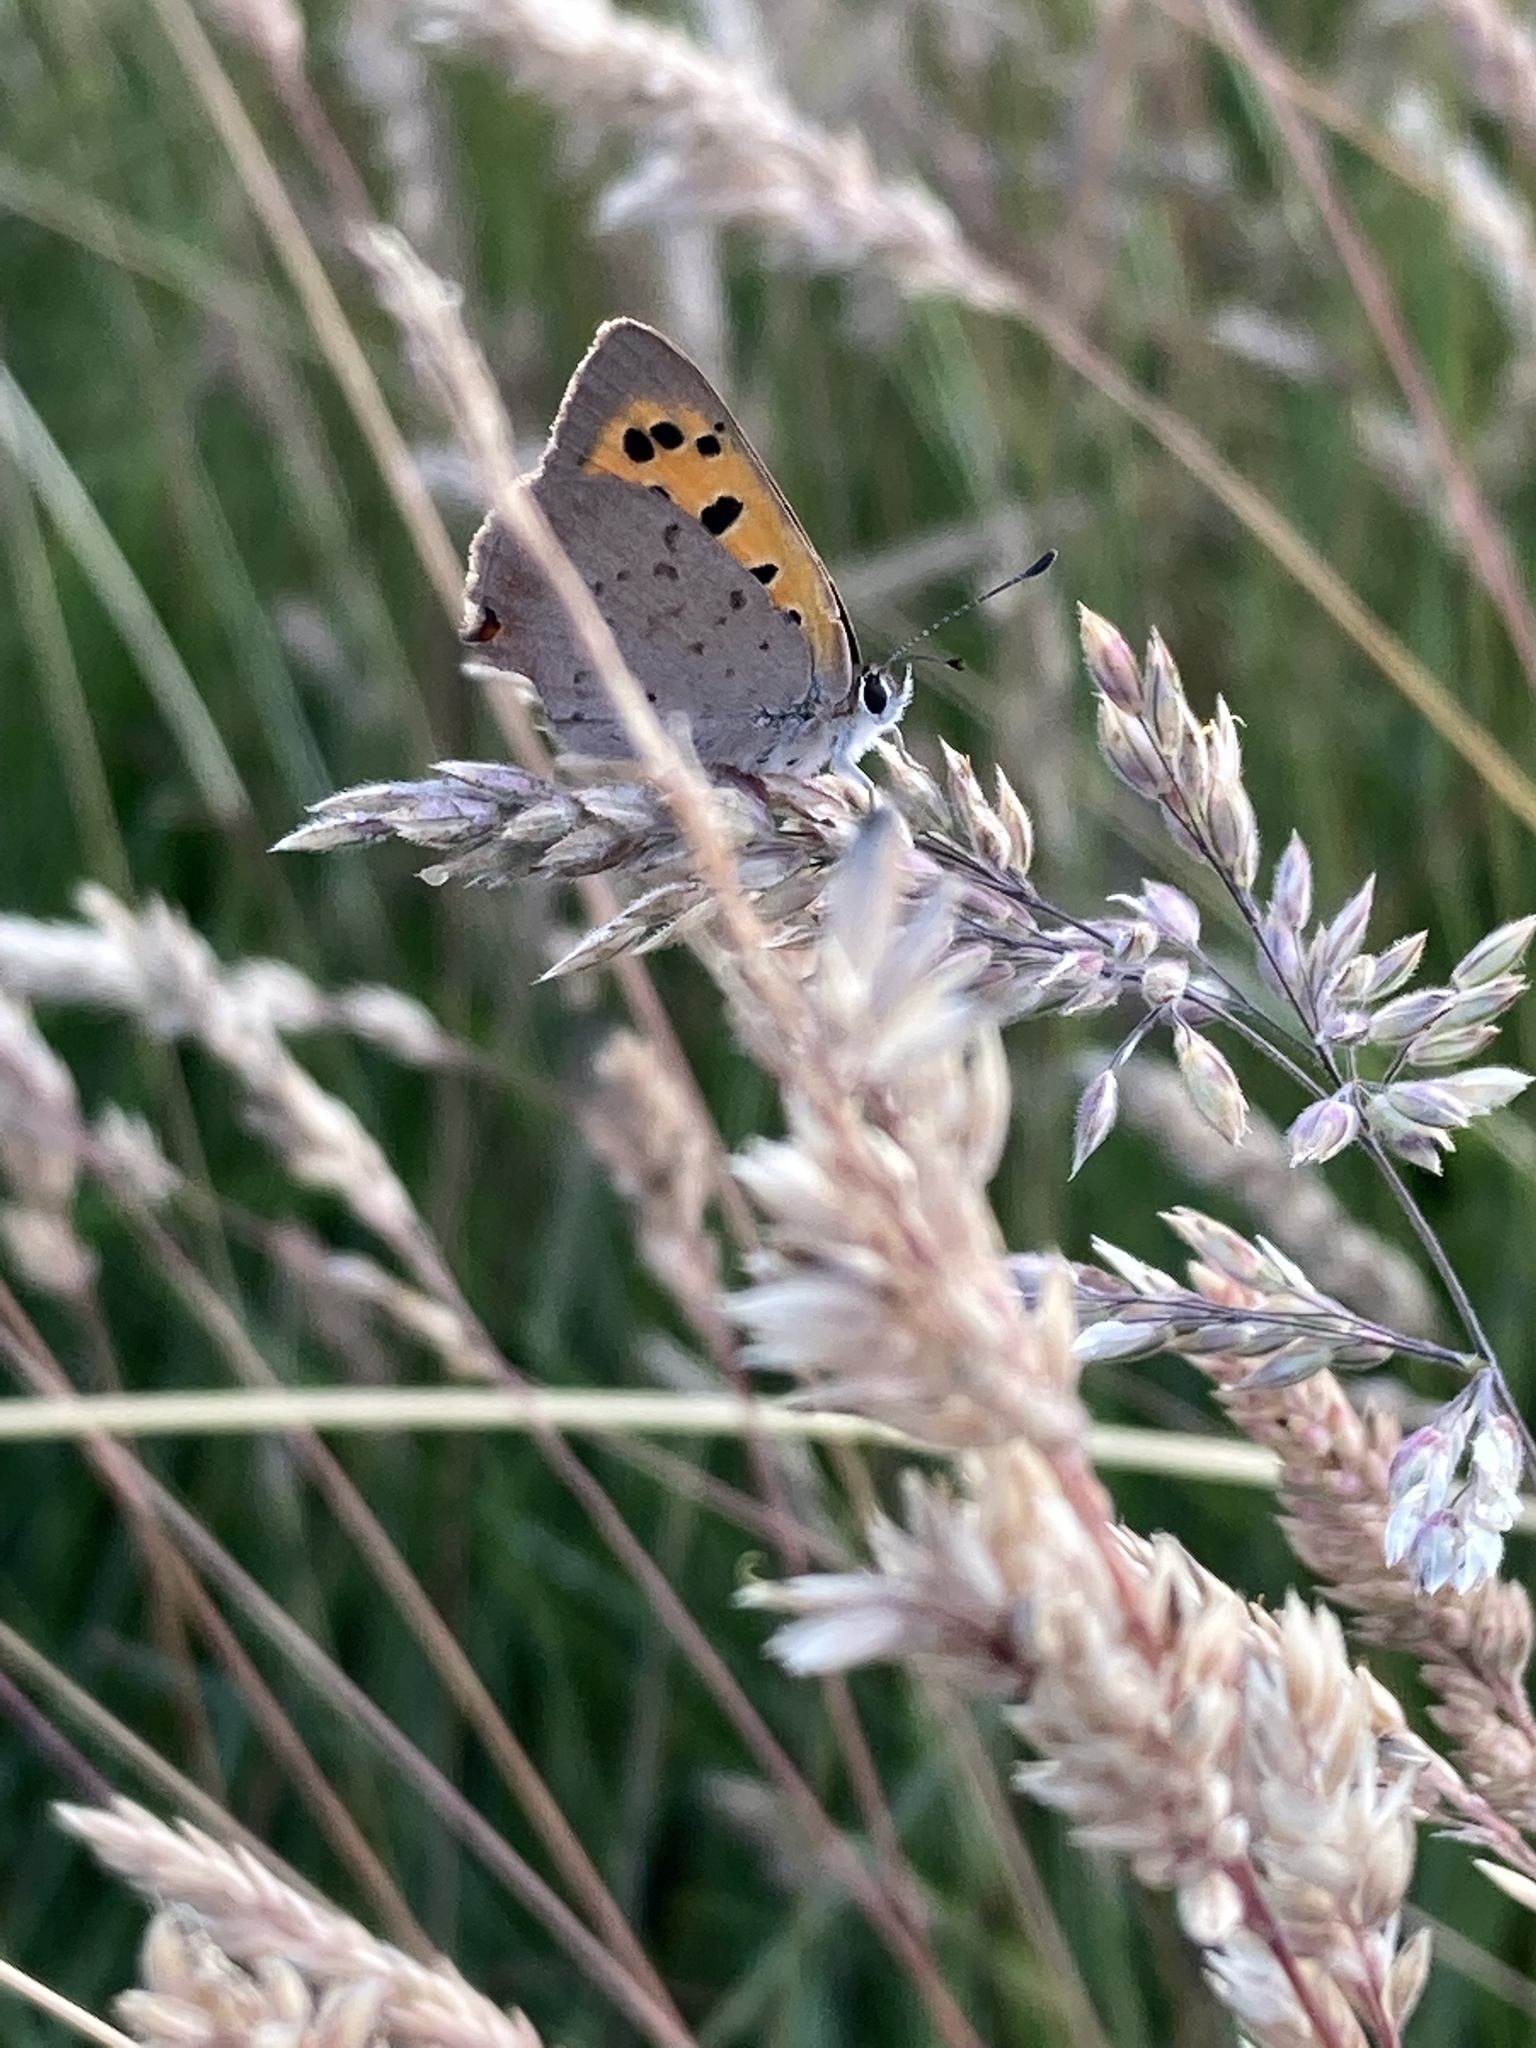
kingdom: Animalia
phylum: Arthropoda
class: Insecta
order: Lepidoptera
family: Lycaenidae
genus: Lycaena
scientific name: Lycaena phlaeas
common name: Small copper
